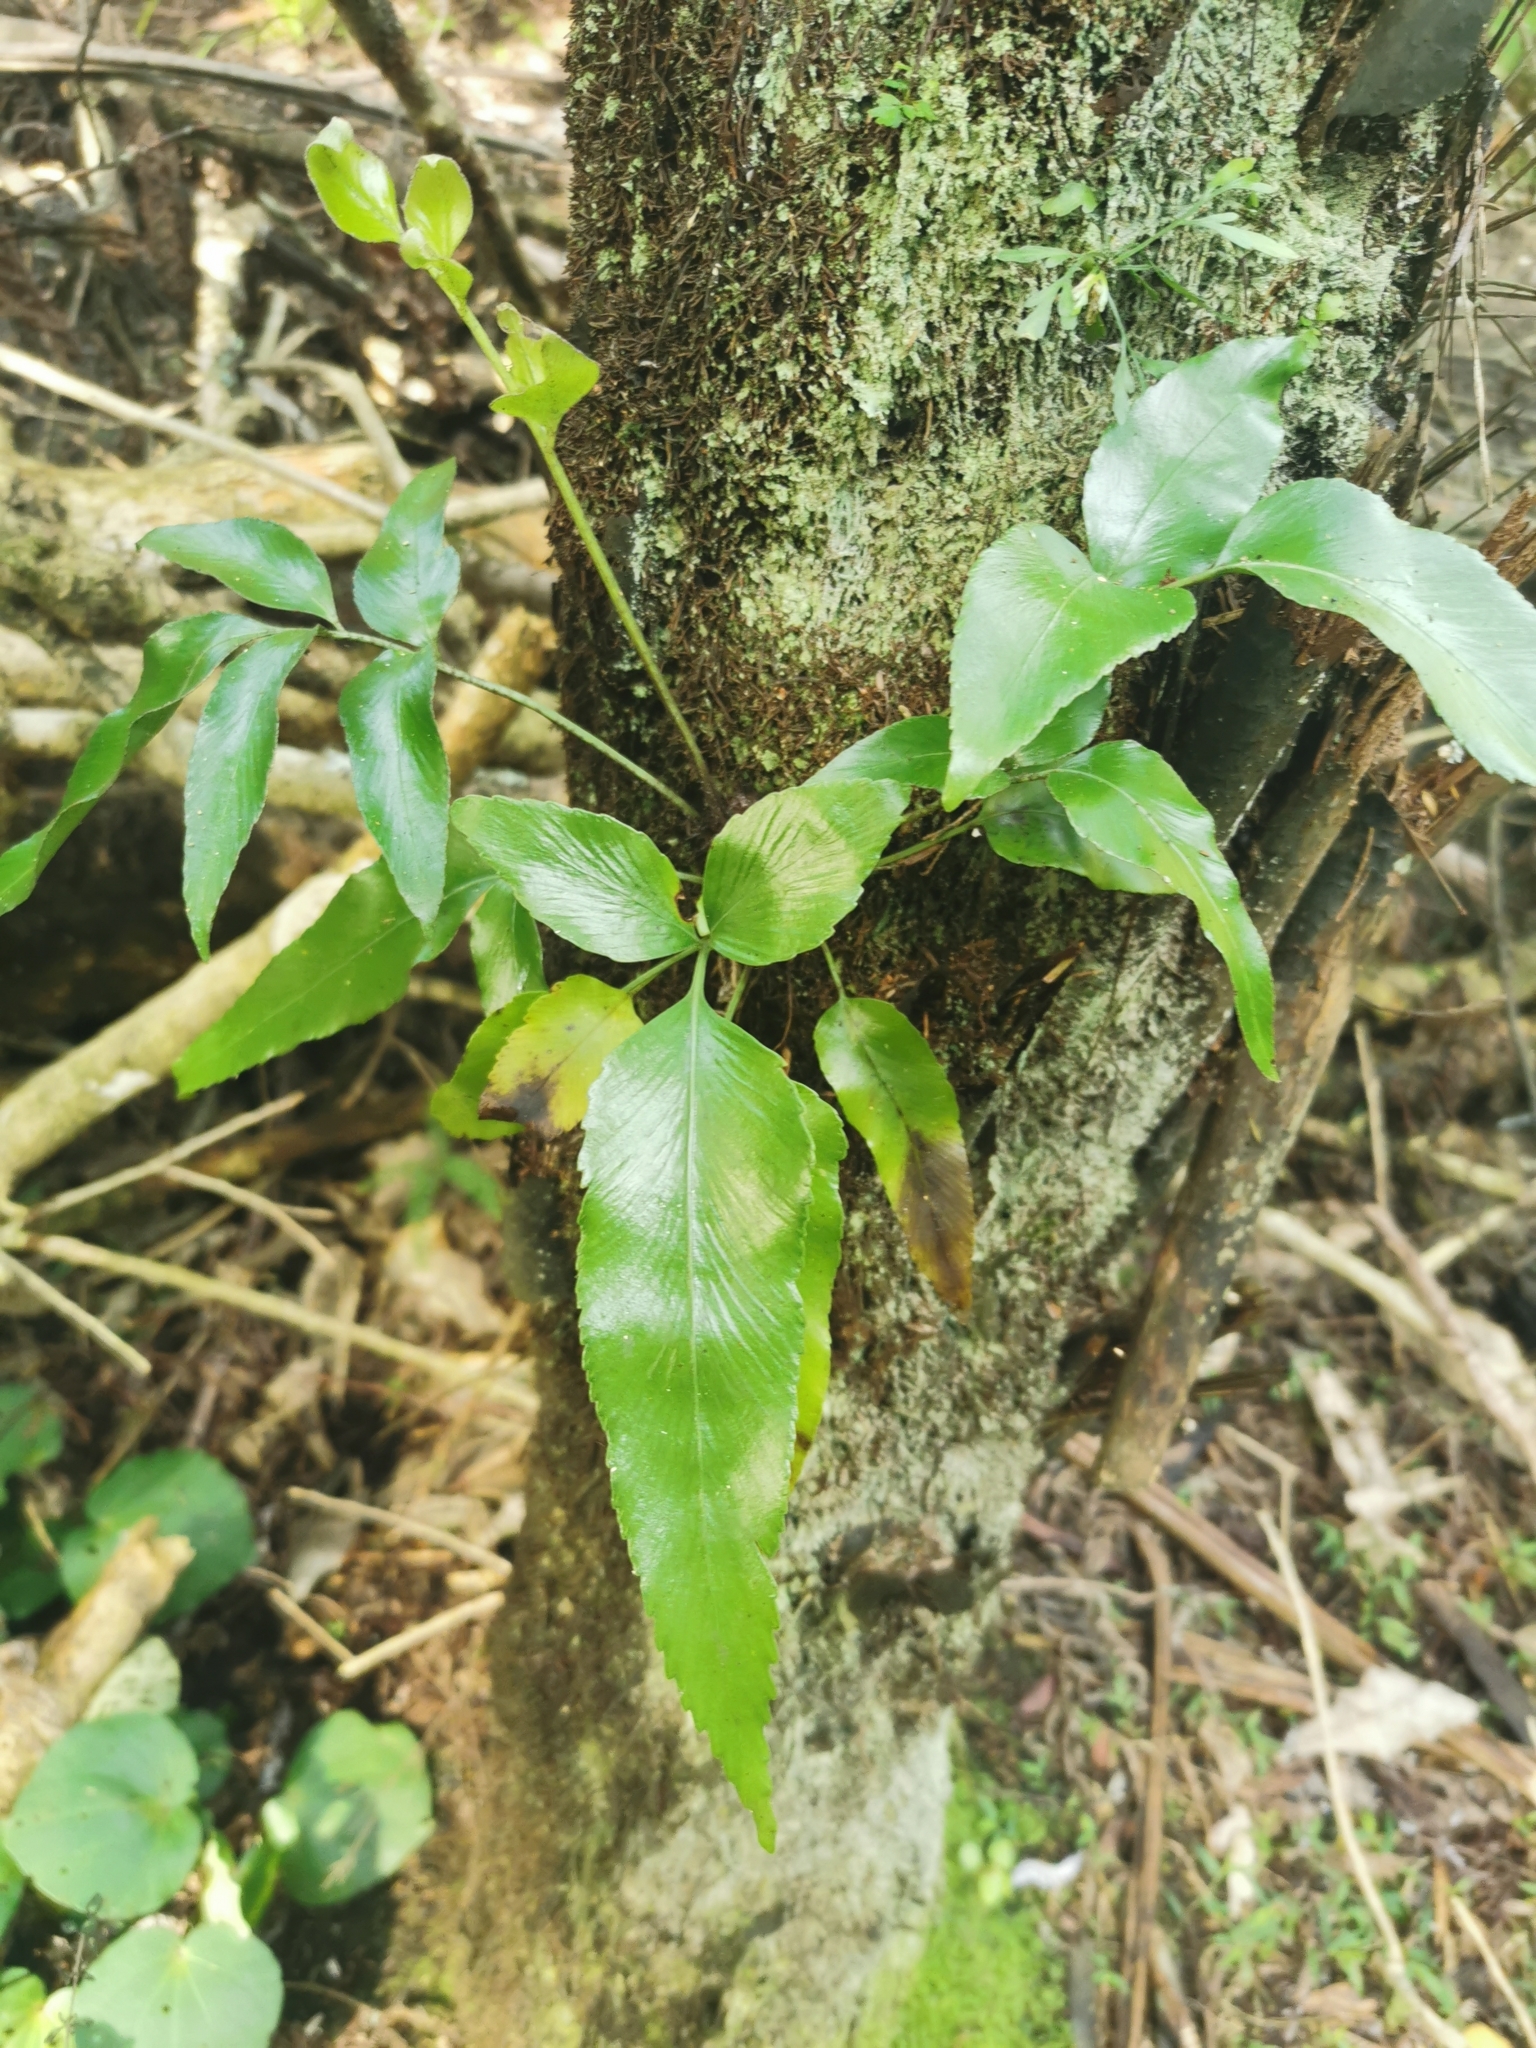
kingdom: Plantae
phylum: Tracheophyta
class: Polypodiopsida
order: Polypodiales
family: Aspleniaceae
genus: Asplenium
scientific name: Asplenium oblongifolium
